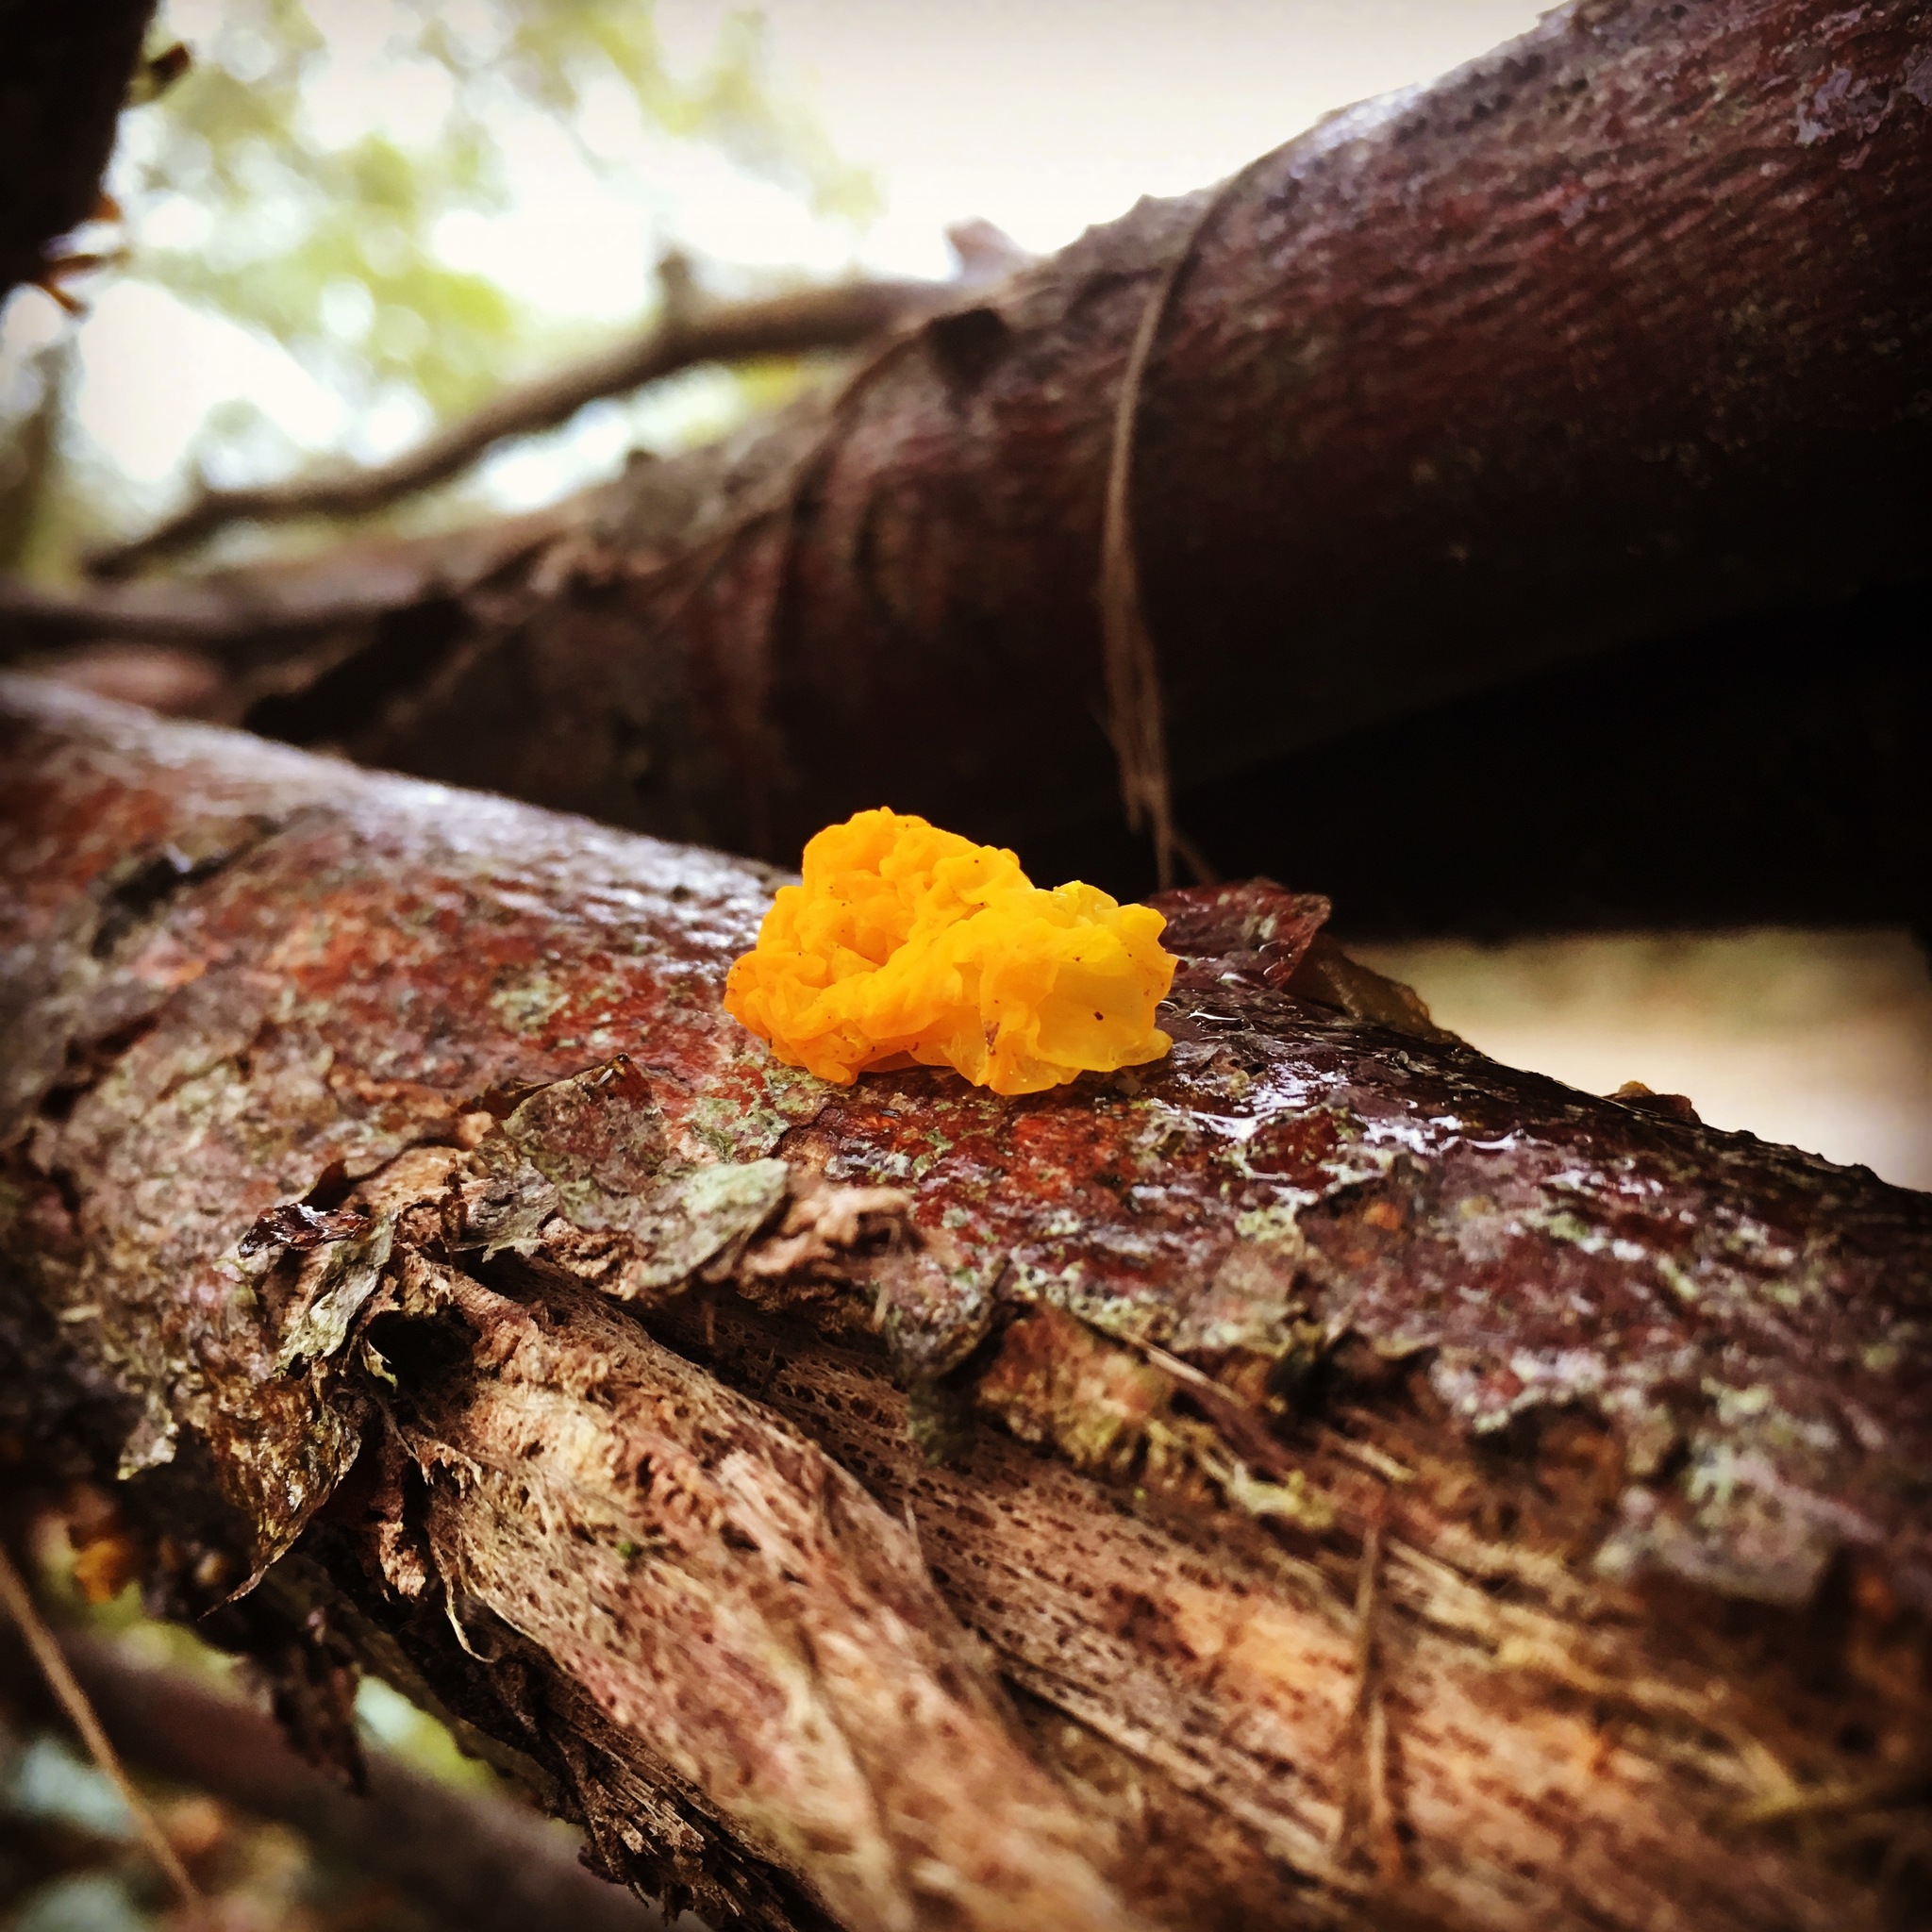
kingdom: Fungi
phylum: Basidiomycota
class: Tremellomycetes
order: Tremellales
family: Tremellaceae
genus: Tremella
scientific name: Tremella mesenterica
